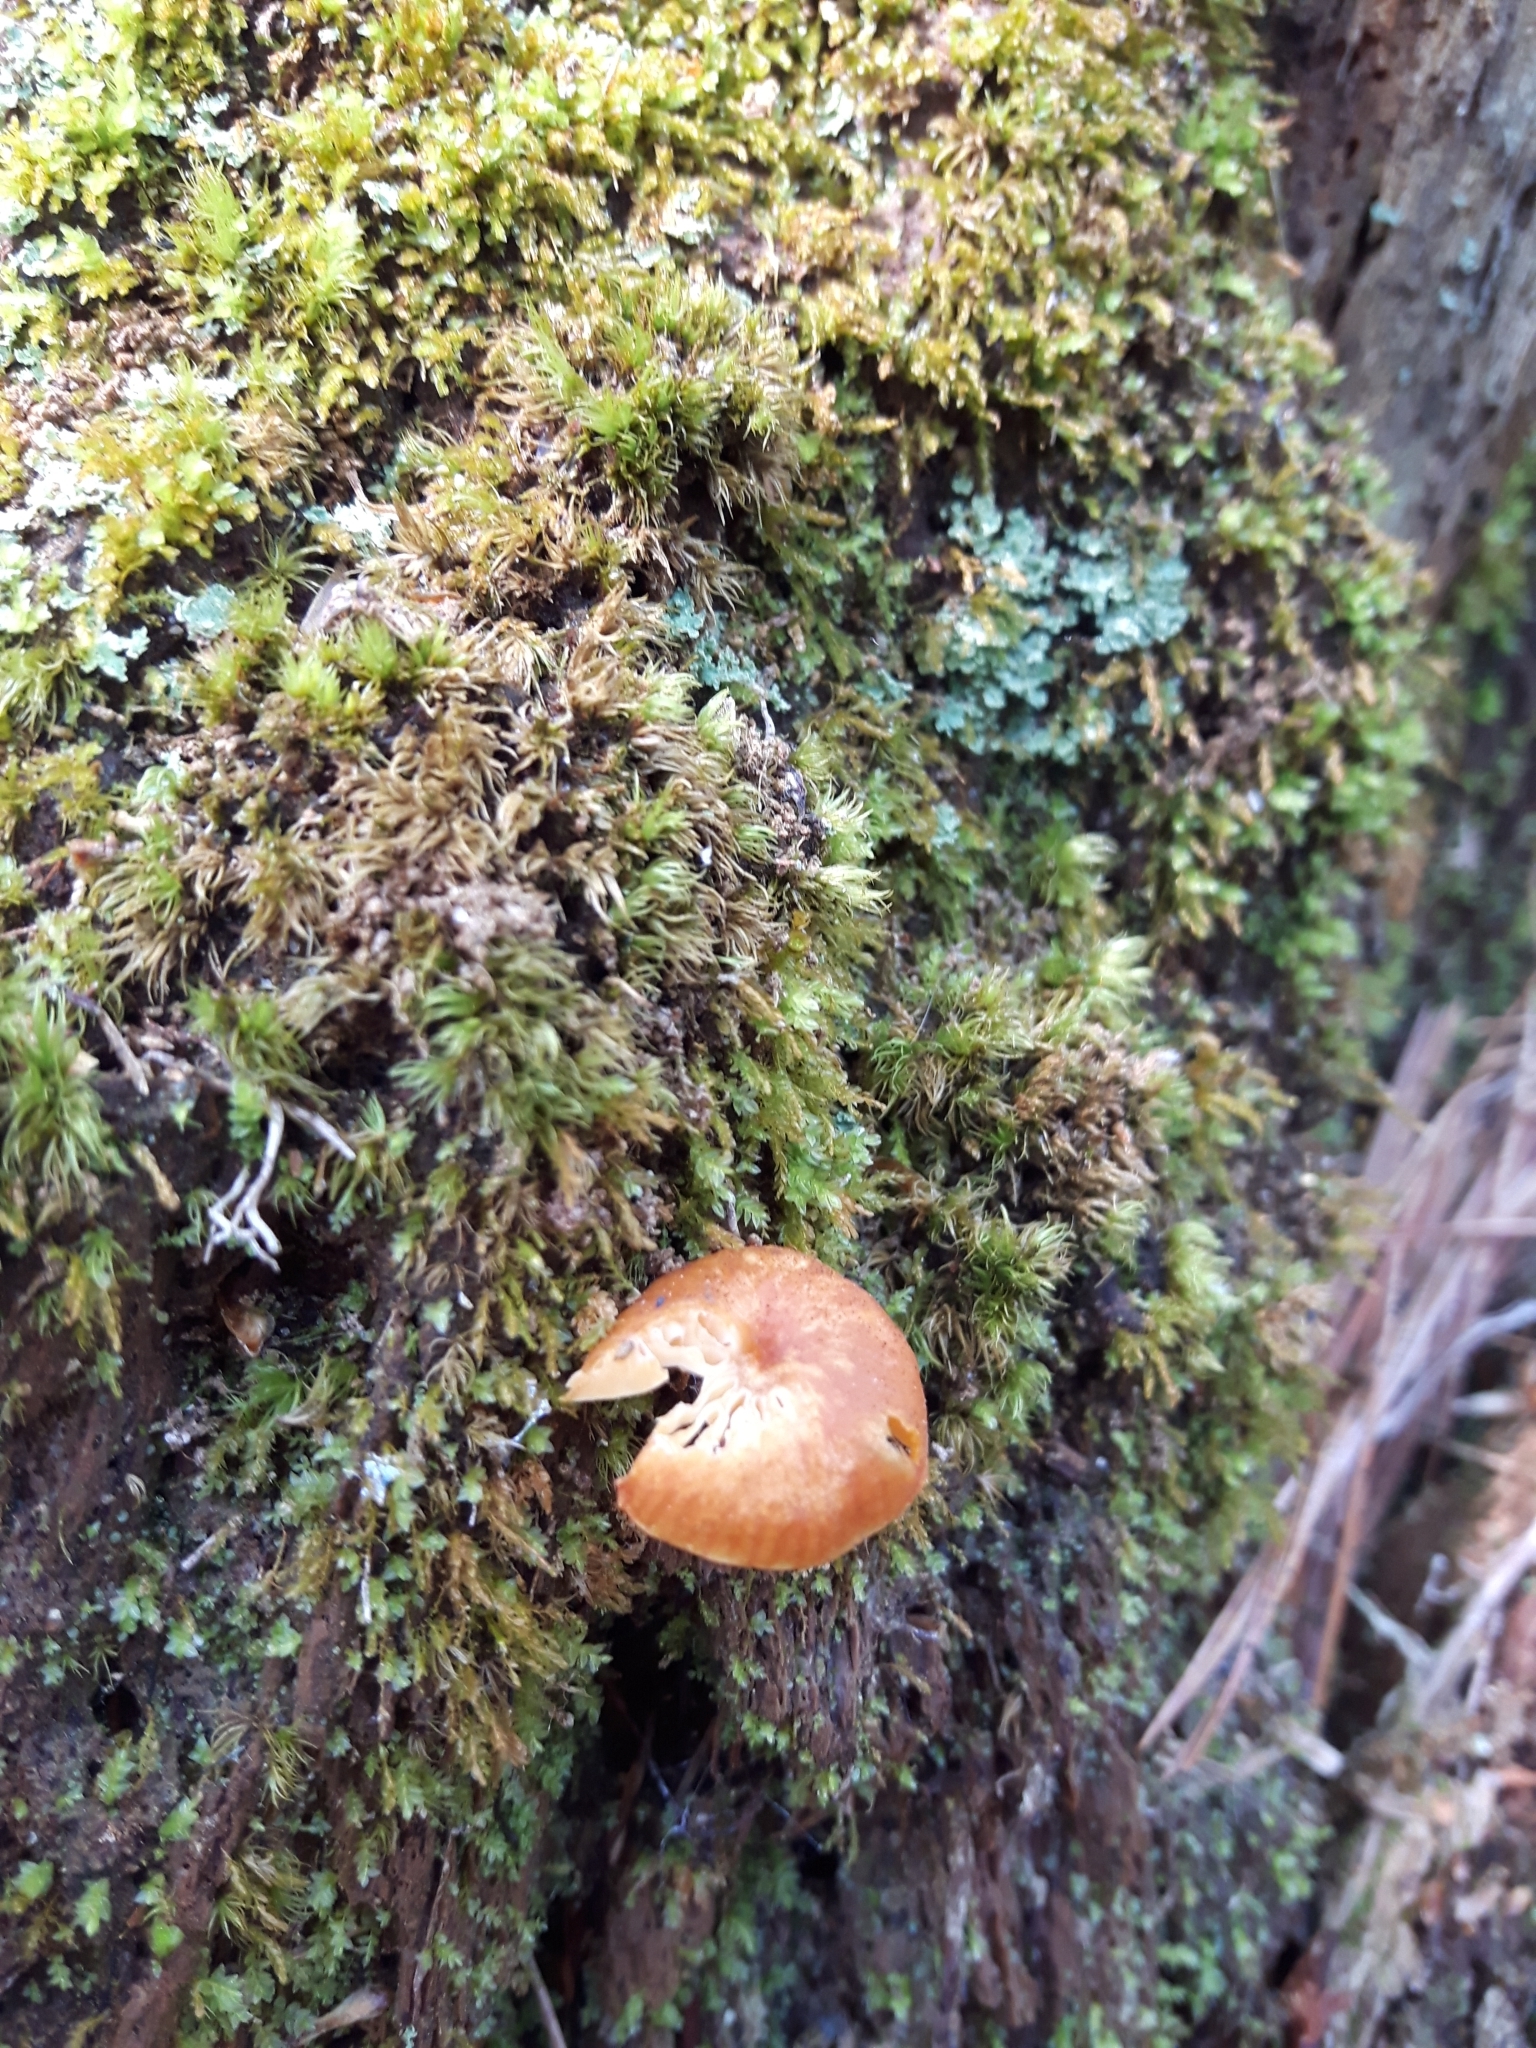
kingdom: Fungi
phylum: Basidiomycota
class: Agaricomycetes
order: Agaricales
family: Mycenaceae
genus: Xeromphalina
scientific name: Xeromphalina campanella
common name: Pinewood gingertail
